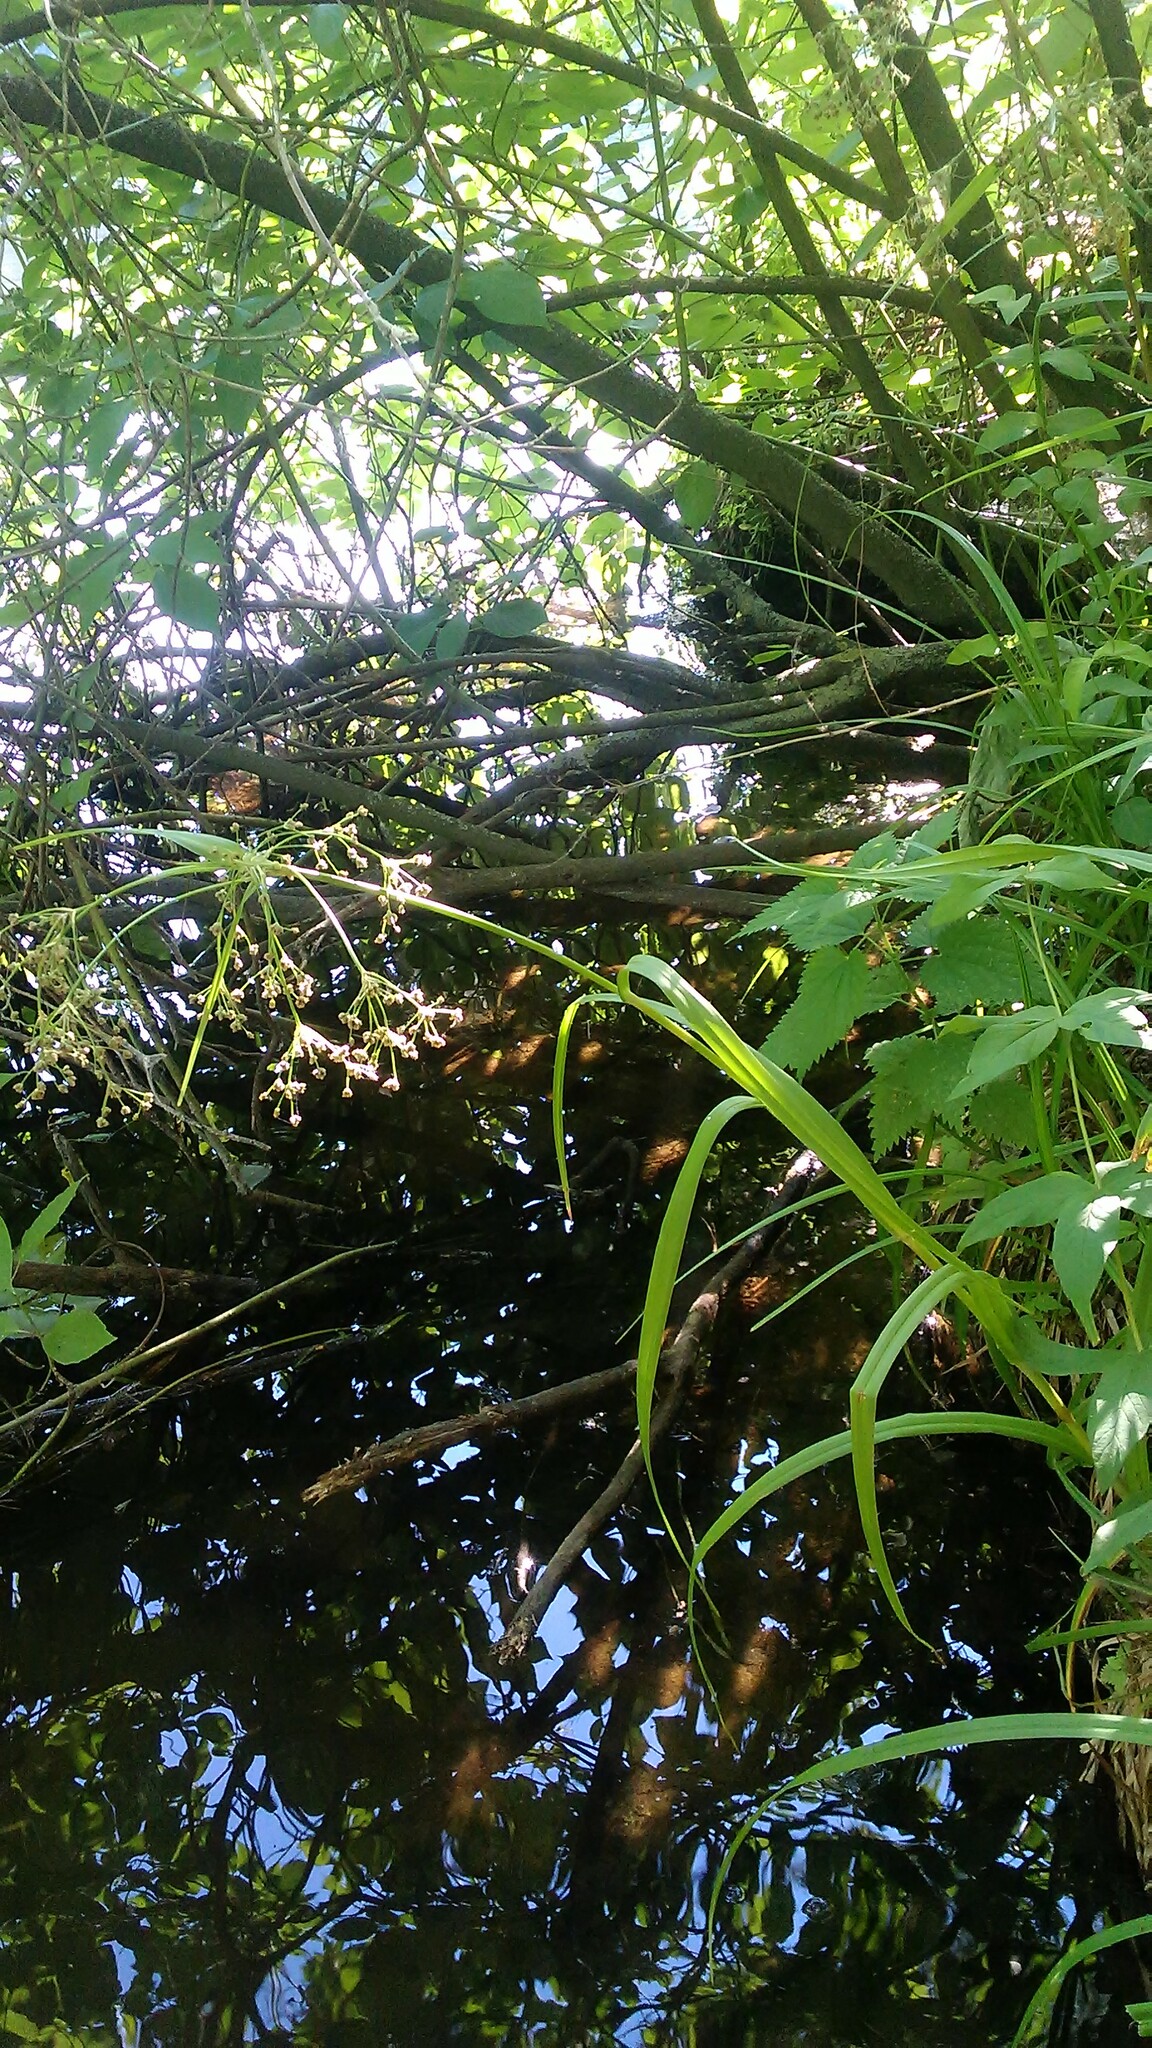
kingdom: Plantae
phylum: Tracheophyta
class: Liliopsida
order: Poales
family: Cyperaceae
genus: Scirpus
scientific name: Scirpus sylvaticus
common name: Wood club-rush
